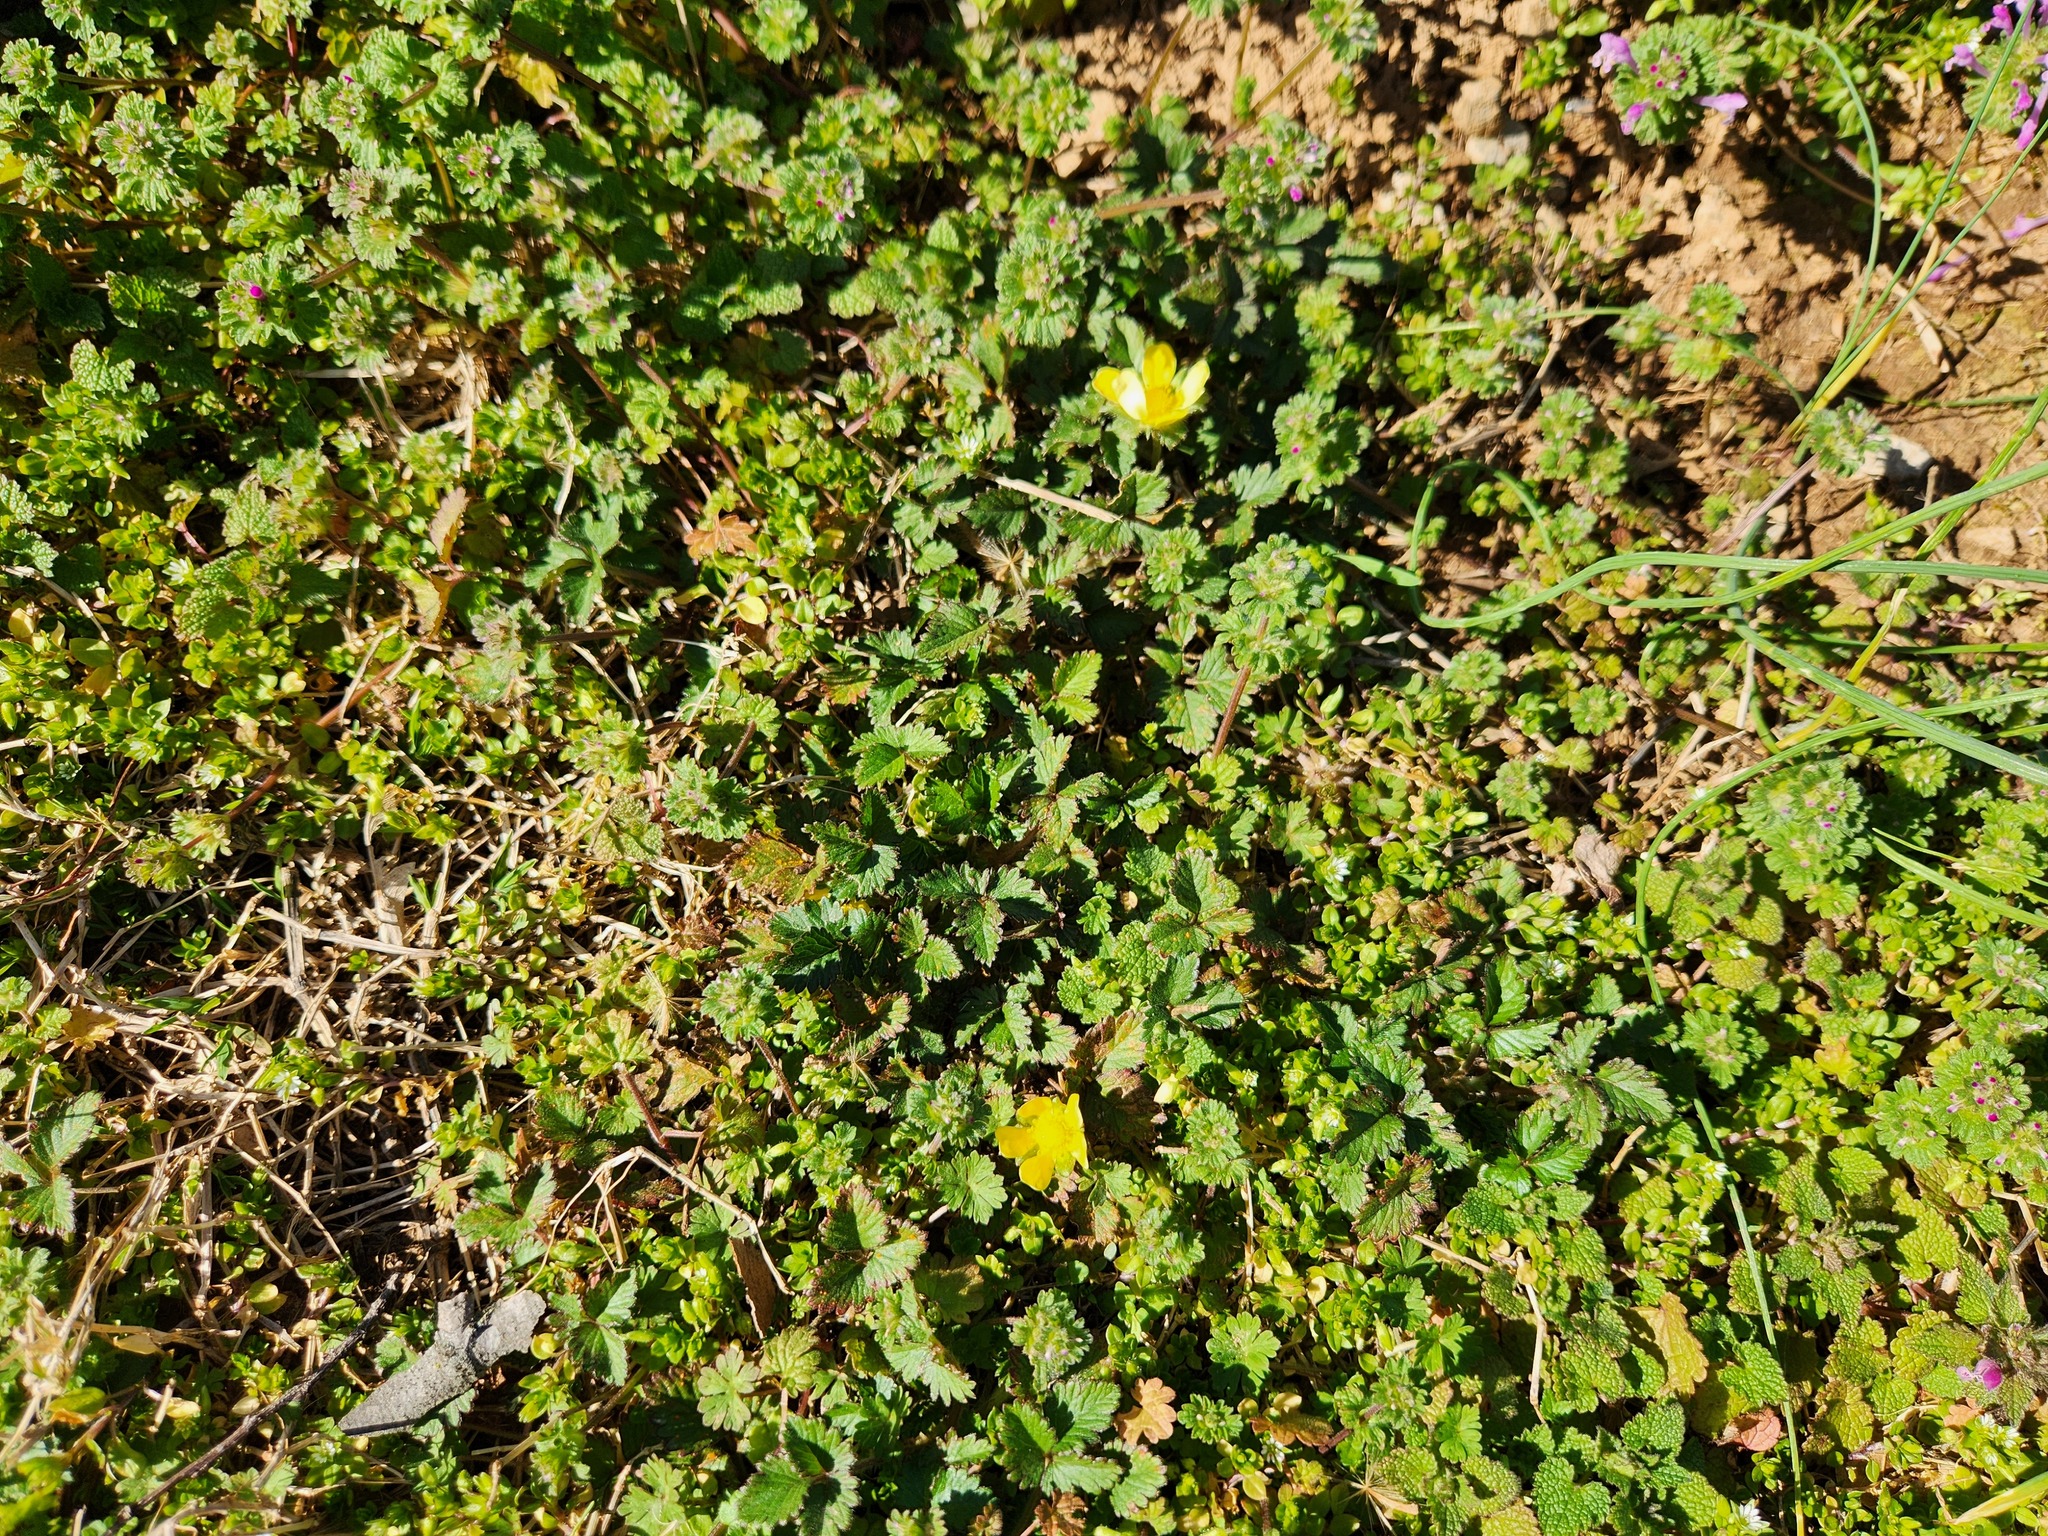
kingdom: Plantae
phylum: Tracheophyta
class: Magnoliopsida
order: Rosales
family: Rosaceae
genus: Potentilla
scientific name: Potentilla indica
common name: Yellow-flowered strawberry
